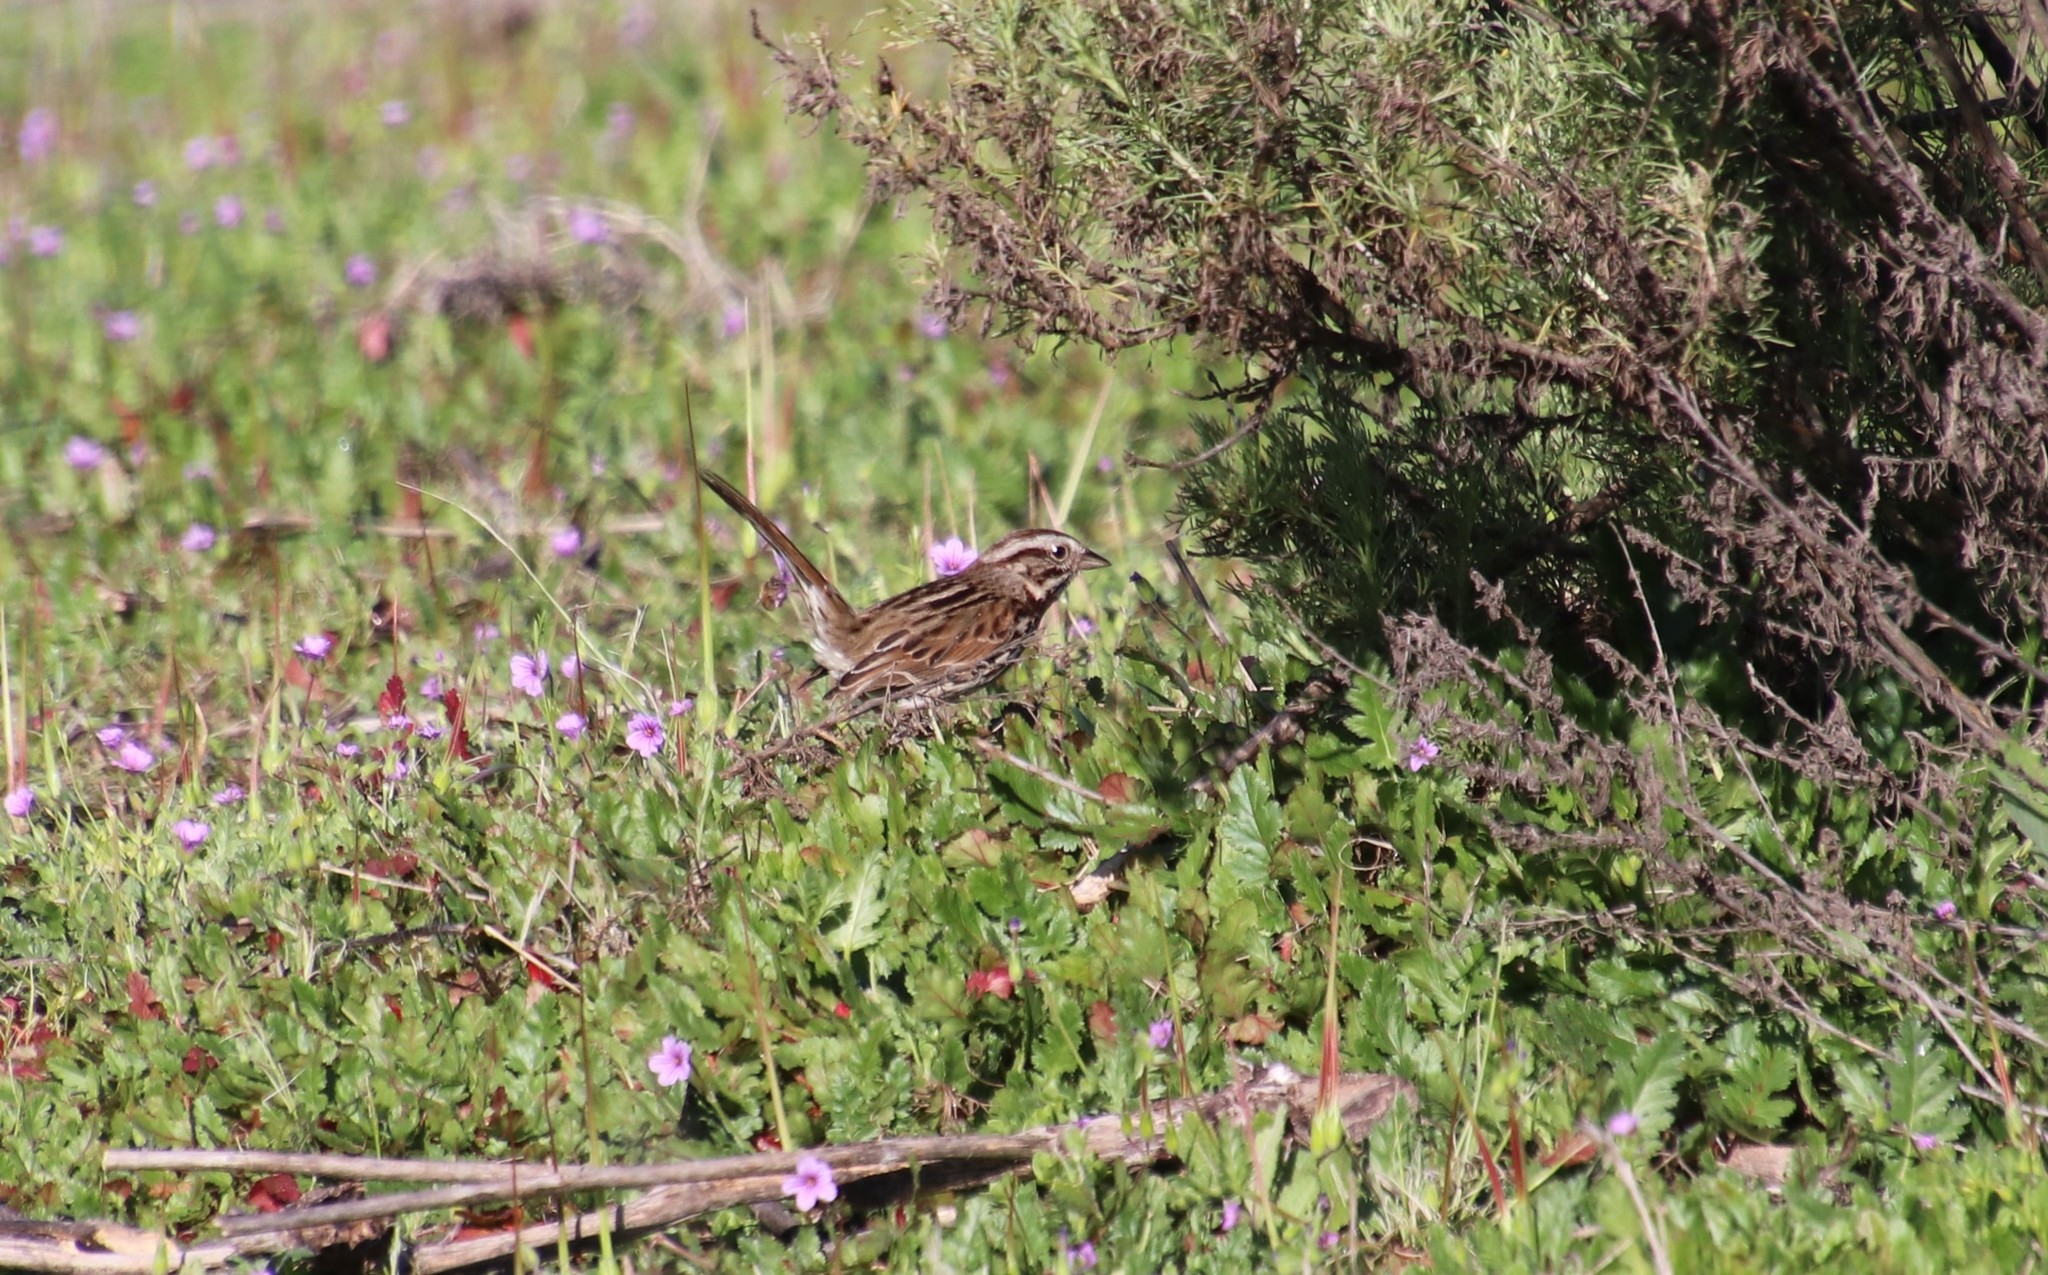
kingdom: Animalia
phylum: Chordata
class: Aves
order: Passeriformes
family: Passerellidae
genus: Melospiza
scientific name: Melospiza melodia
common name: Song sparrow
